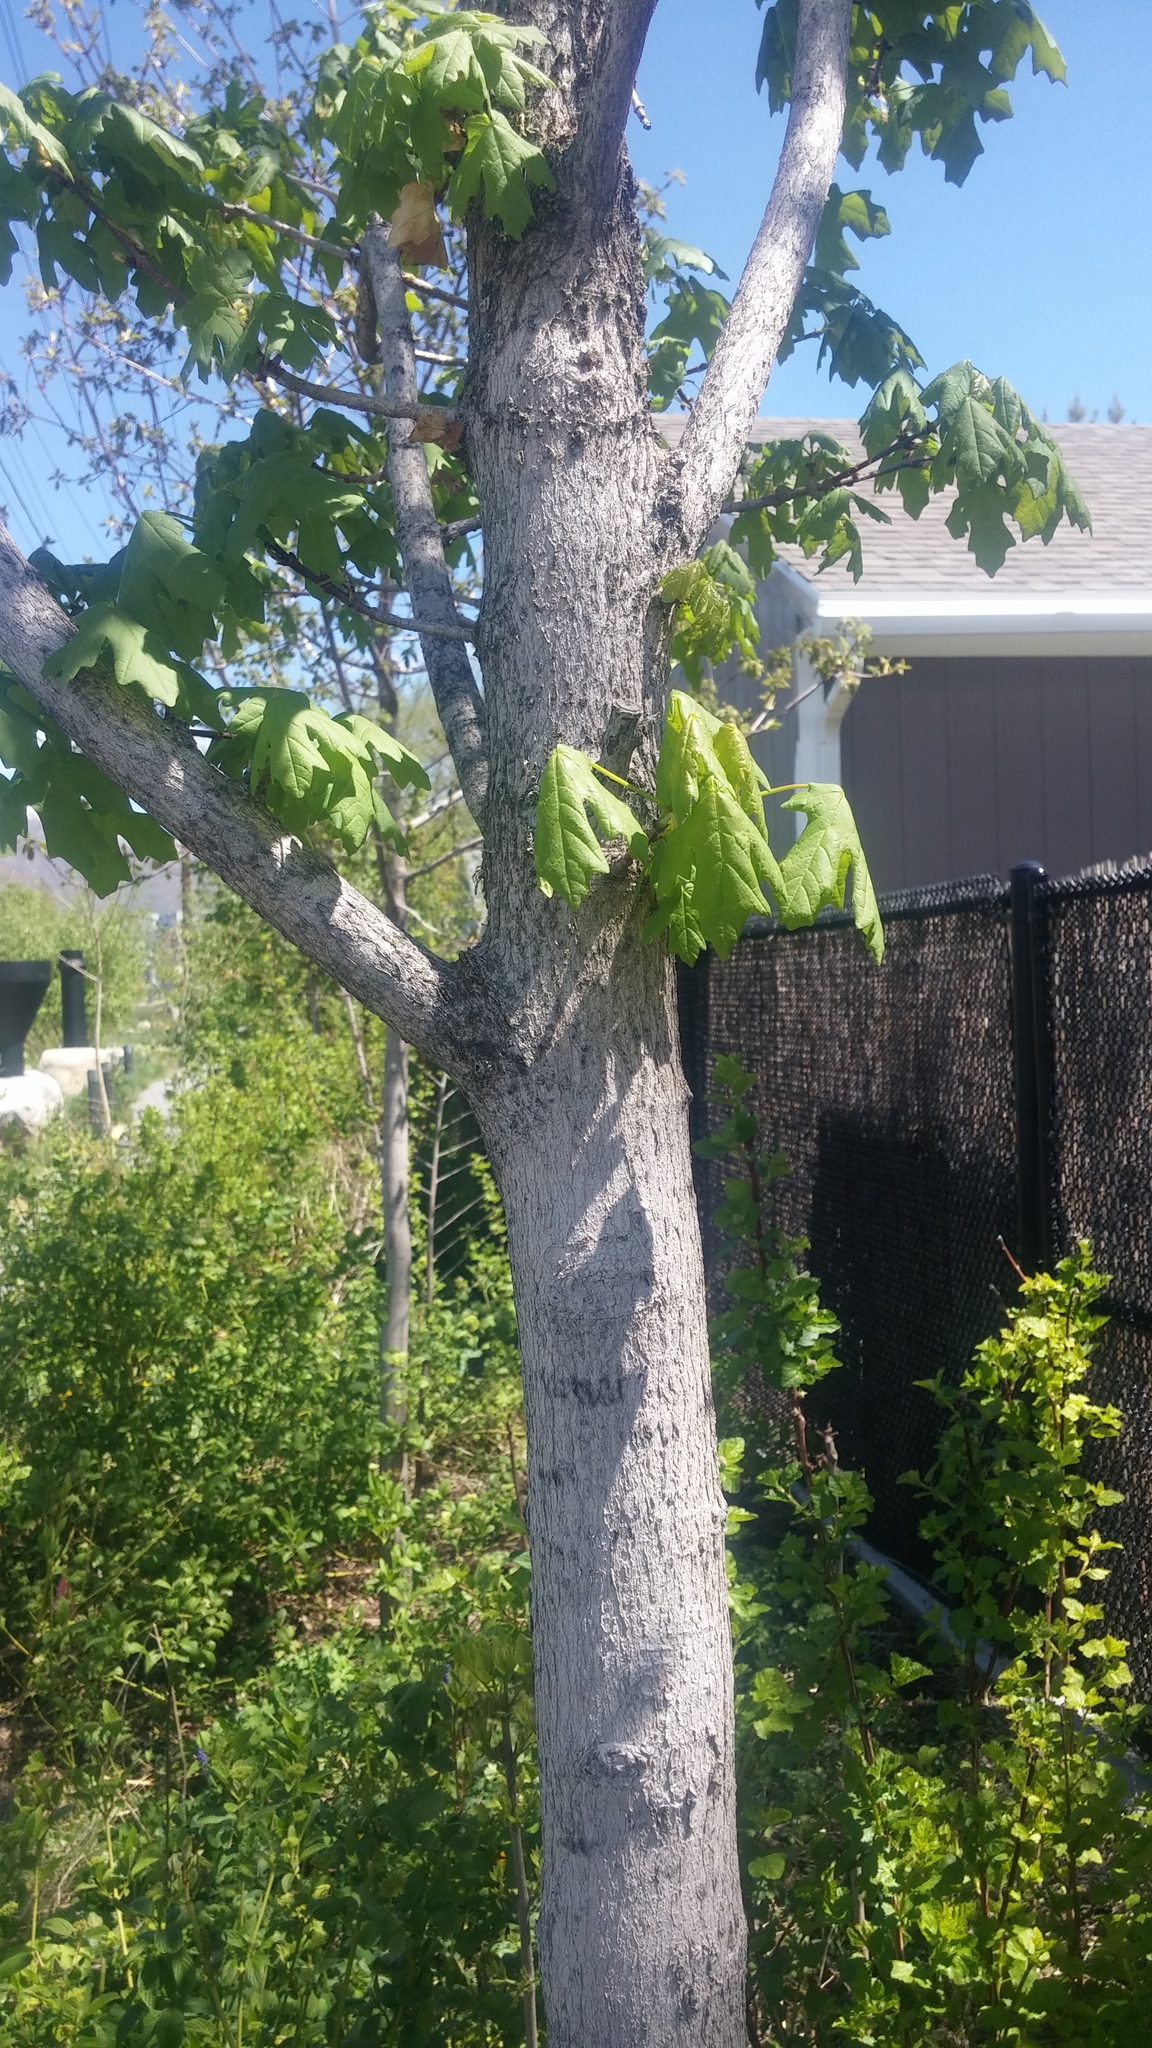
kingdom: Plantae
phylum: Tracheophyta
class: Magnoliopsida
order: Sapindales
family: Sapindaceae
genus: Acer
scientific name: Acer grandidentatum
